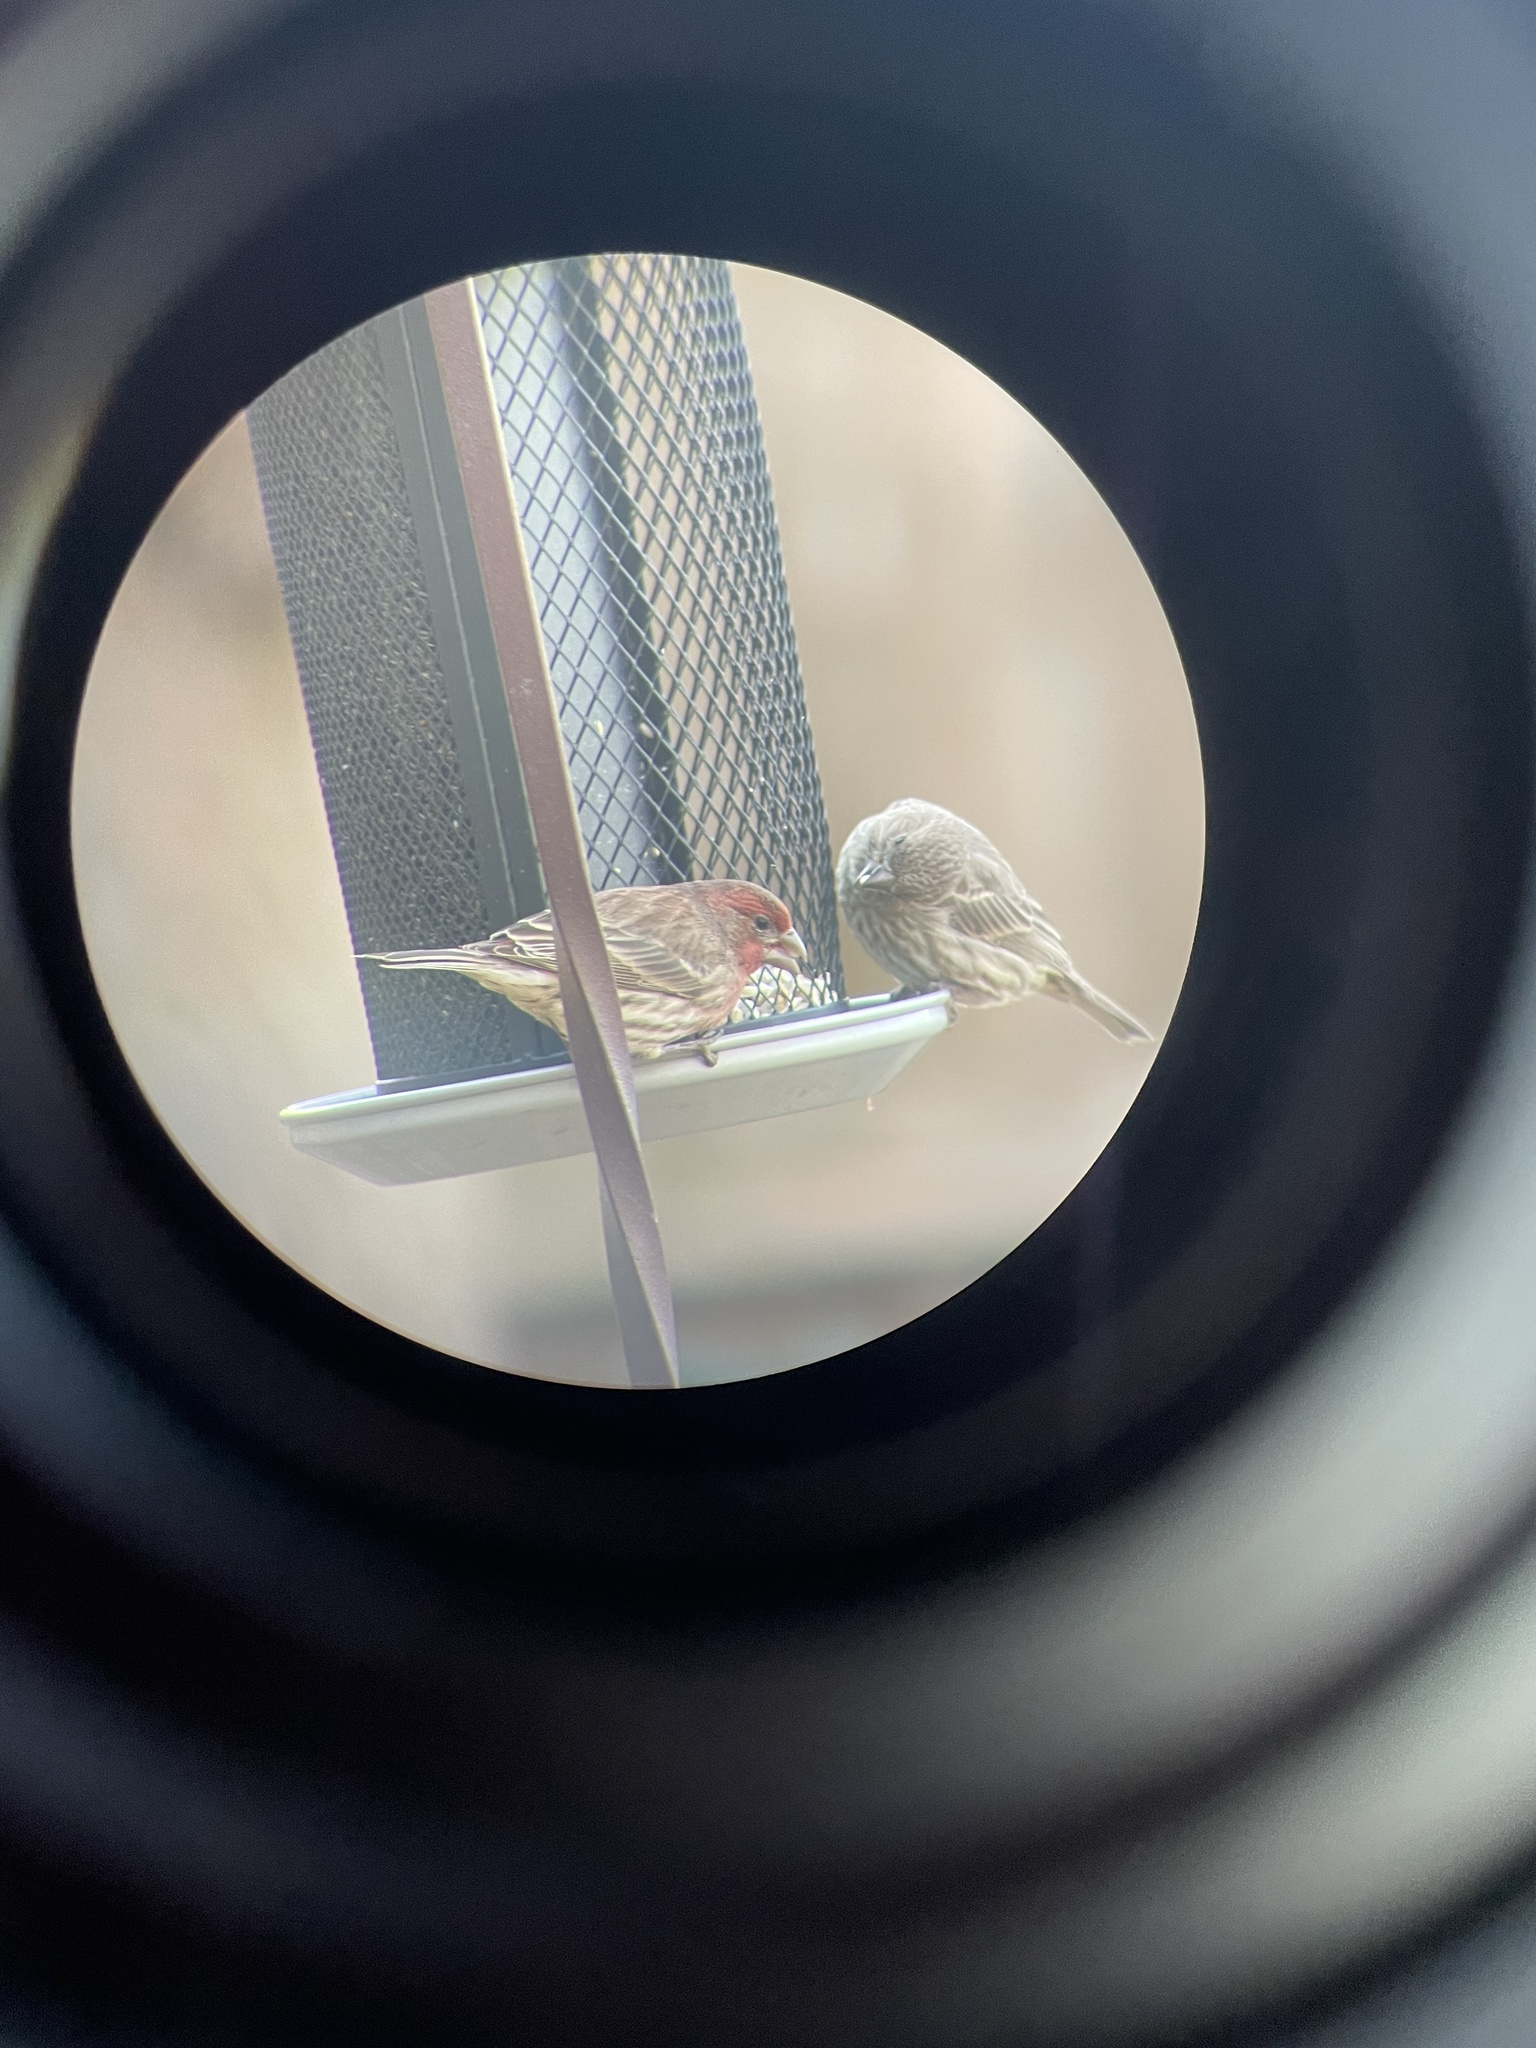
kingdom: Animalia
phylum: Chordata
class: Aves
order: Passeriformes
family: Fringillidae
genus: Haemorhous
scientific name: Haemorhous mexicanus
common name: House finch
